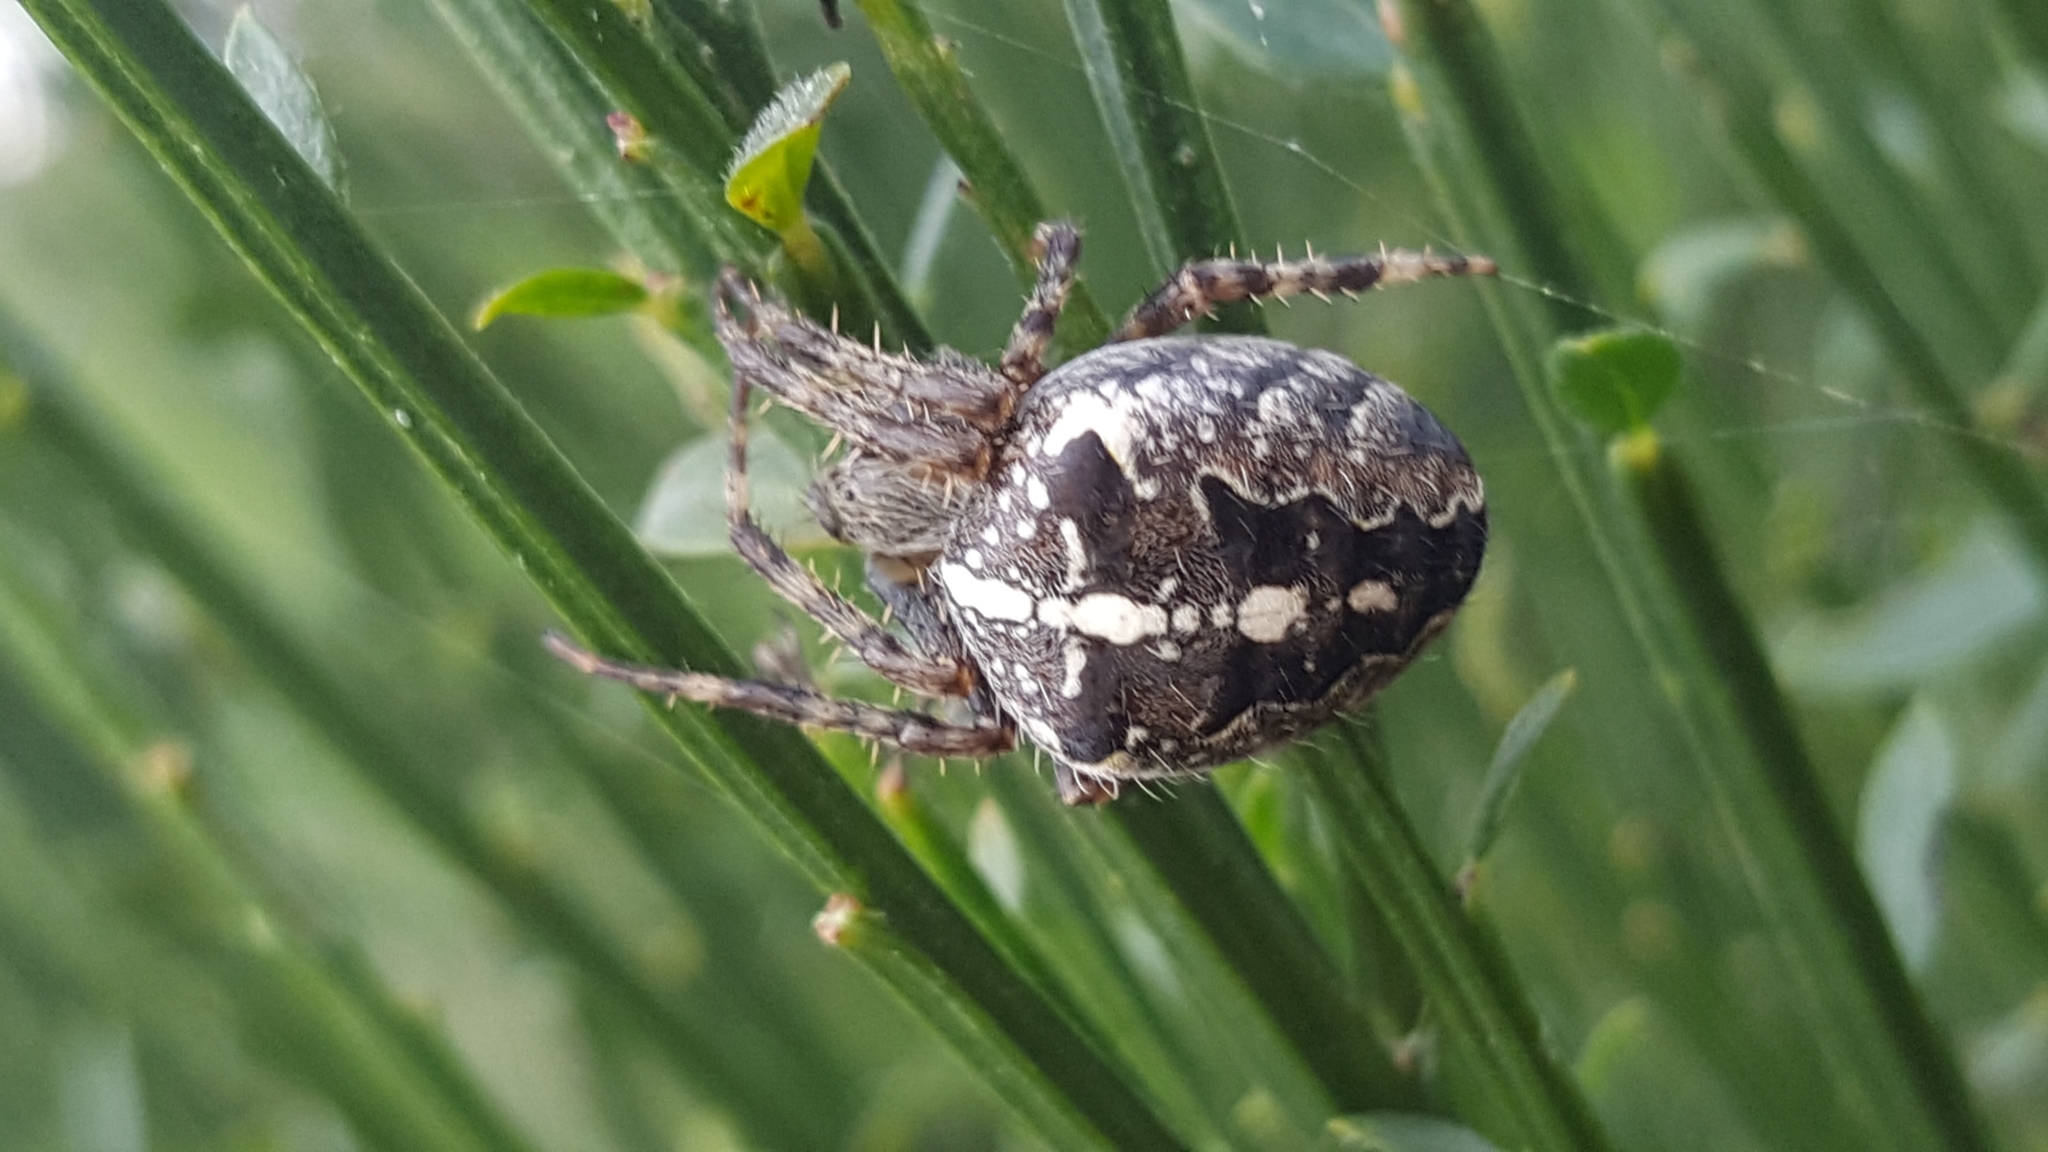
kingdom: Animalia
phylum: Arthropoda
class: Arachnida
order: Araneae
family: Araneidae
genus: Araneus
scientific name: Araneus diadematus
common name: Cross orbweaver
